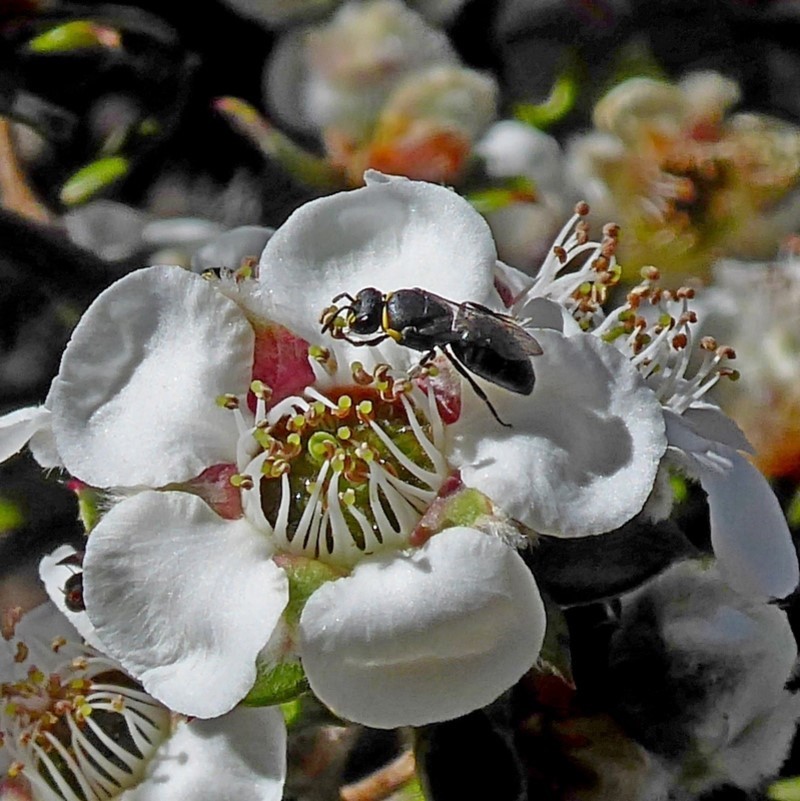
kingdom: Animalia
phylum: Arthropoda
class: Insecta
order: Hymenoptera
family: Colletidae
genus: Hylaeus
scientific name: Hylaeus bituberculatus
